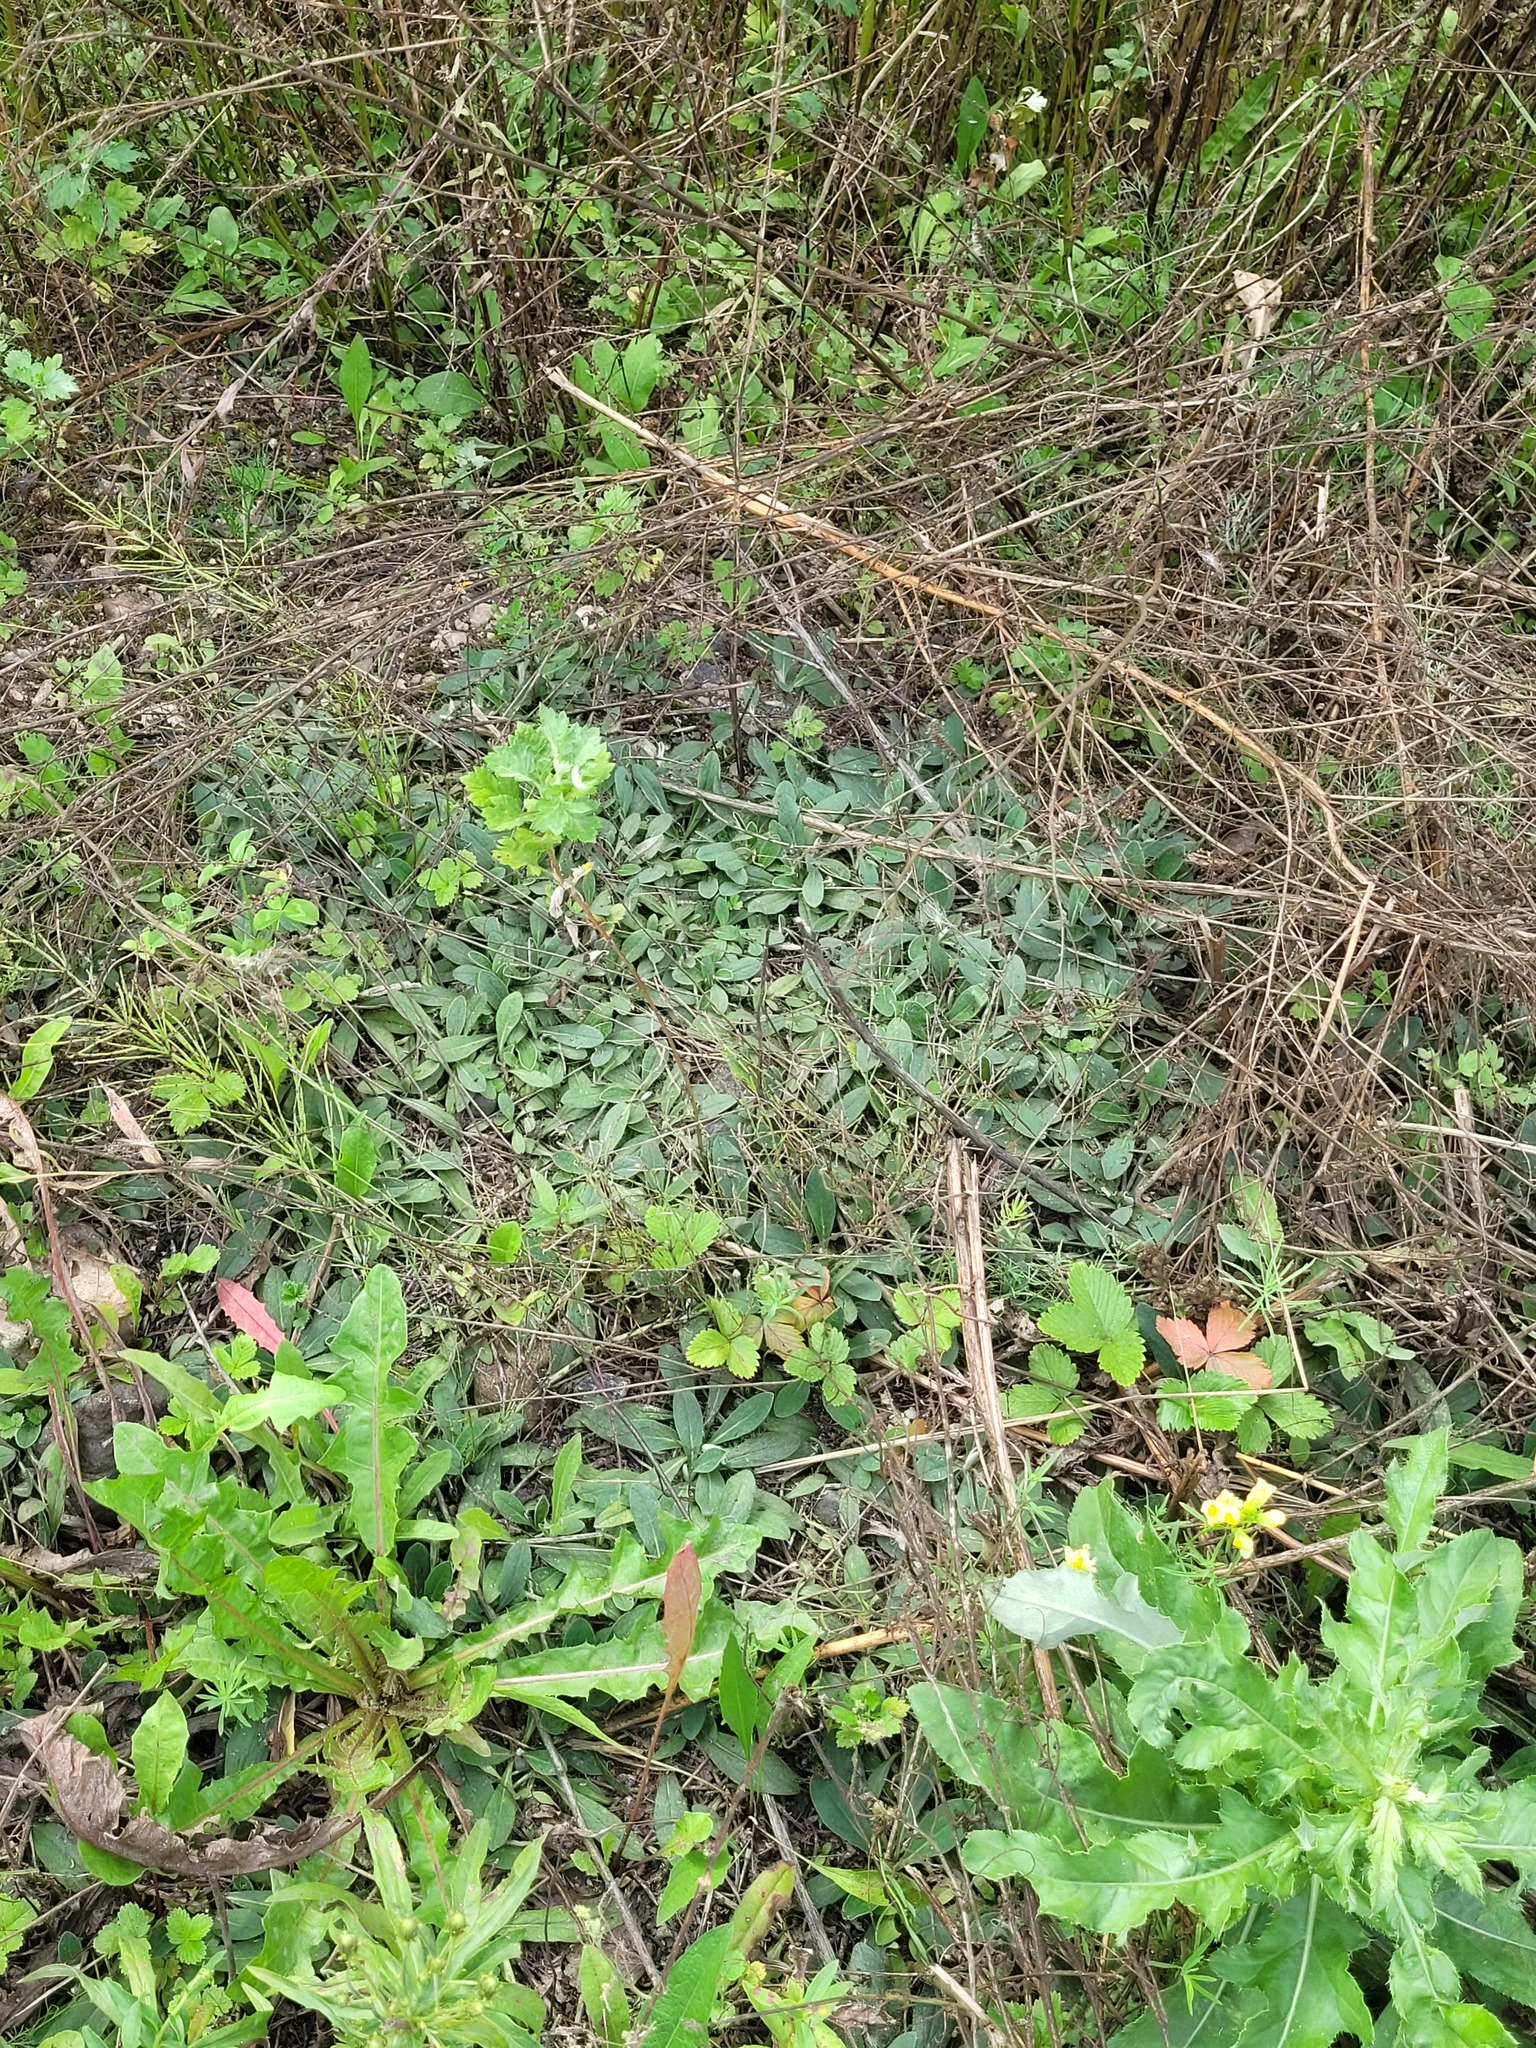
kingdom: Plantae
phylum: Tracheophyta
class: Magnoliopsida
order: Asterales
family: Asteraceae
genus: Pilosella
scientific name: Pilosella officinarum
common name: Mouse-ear hawkweed
